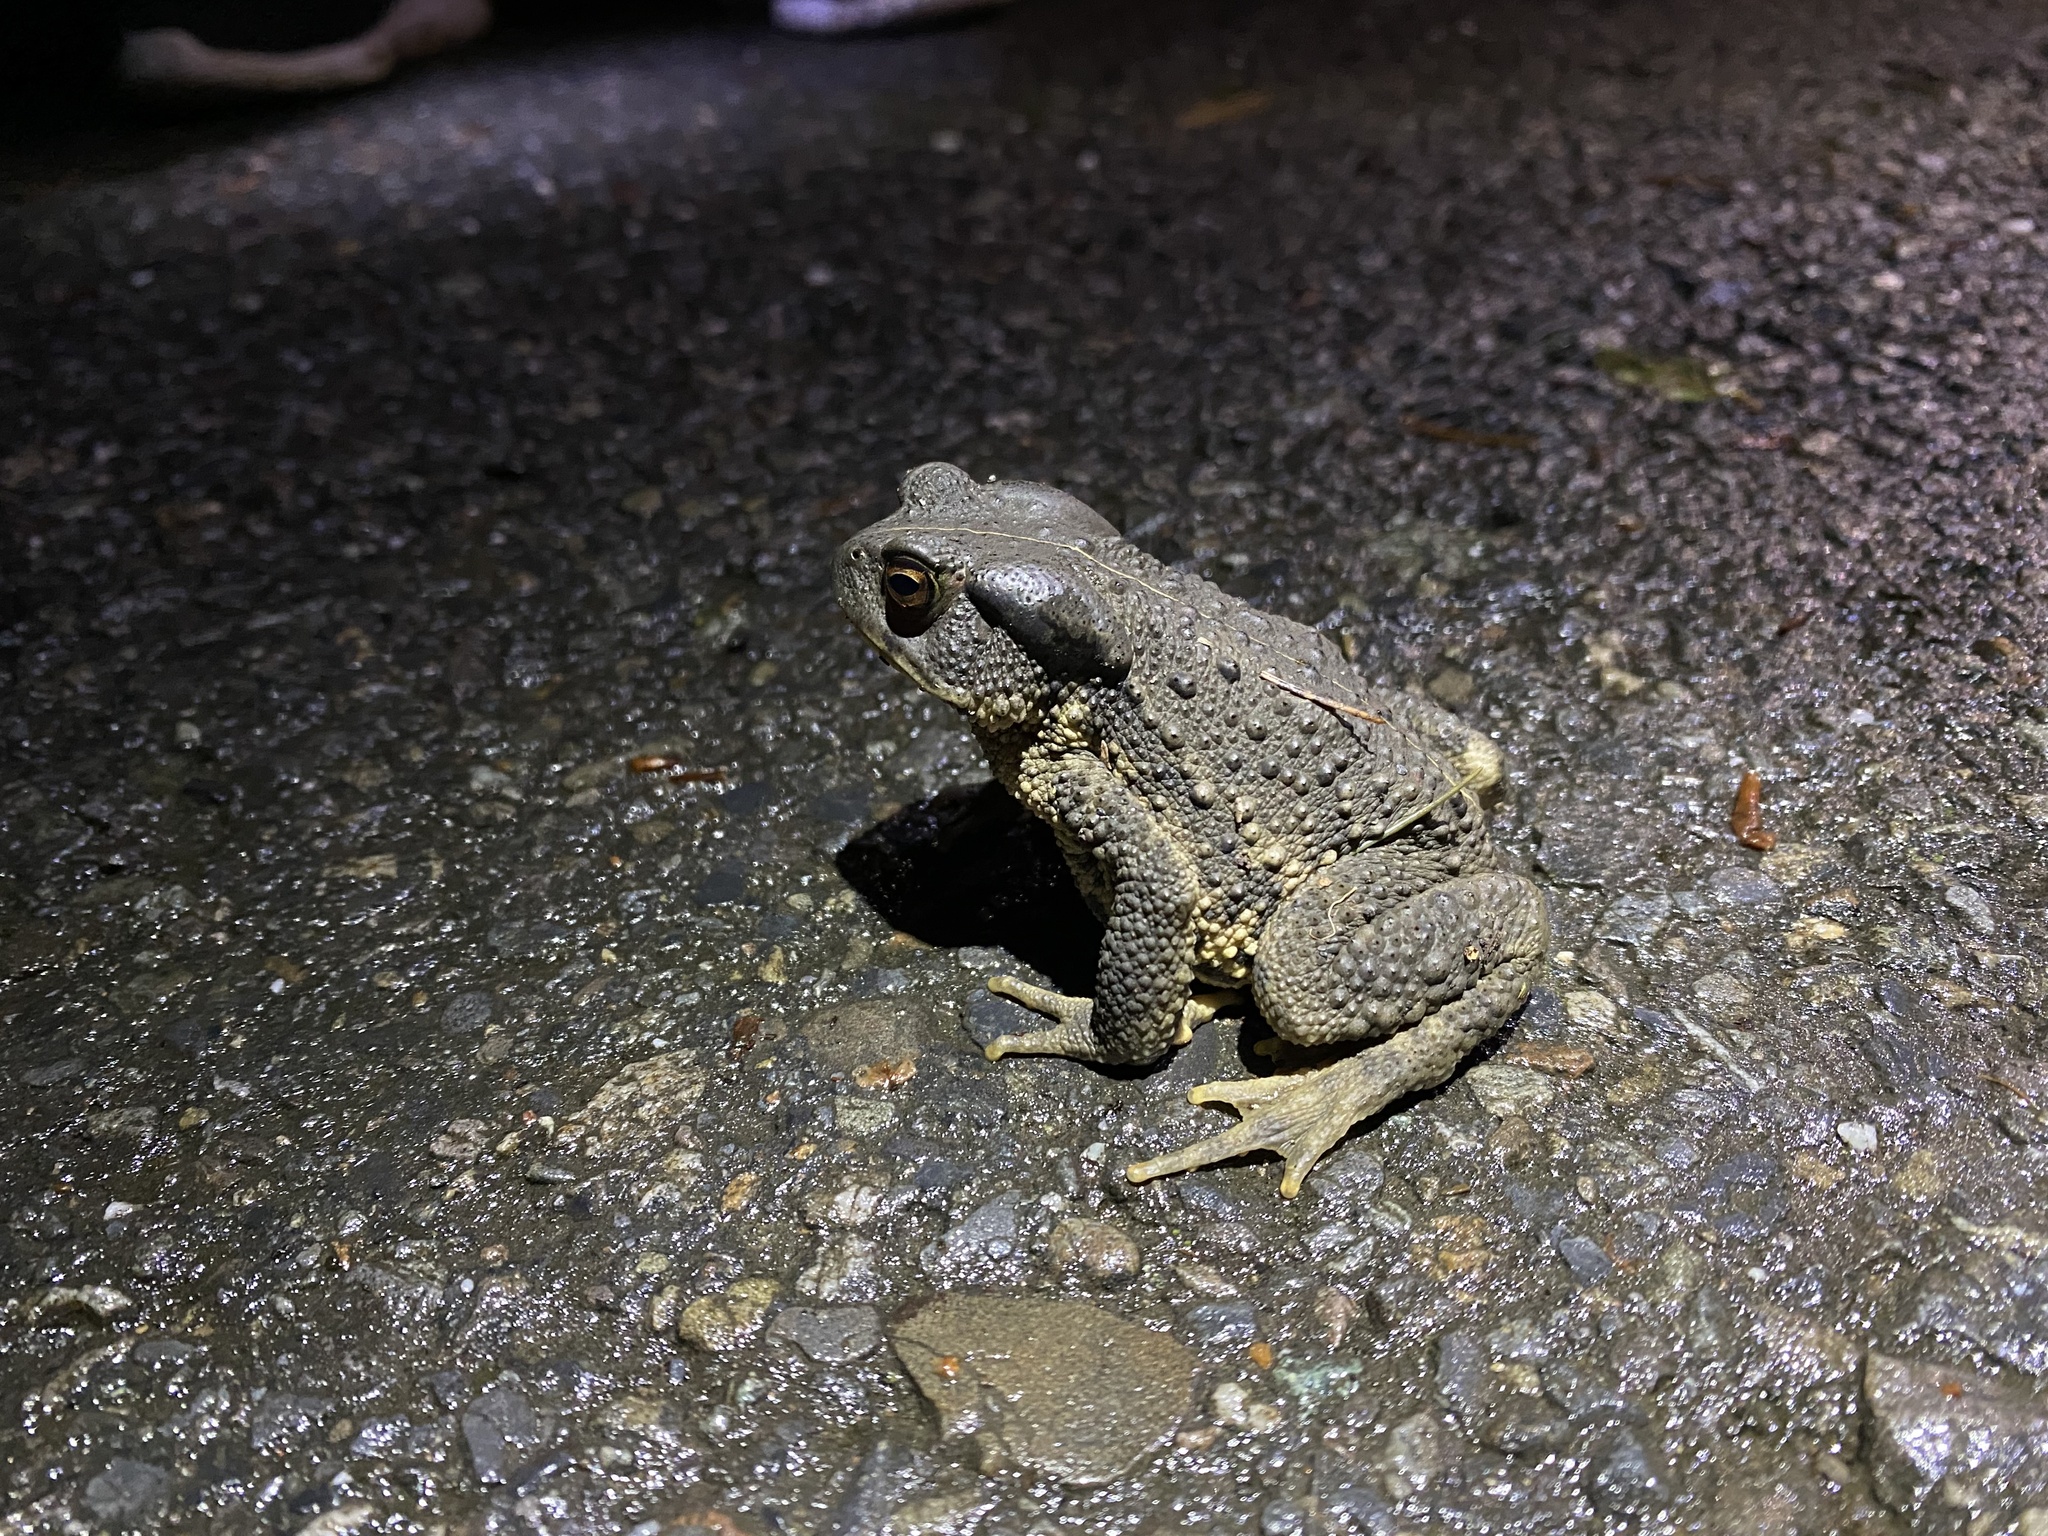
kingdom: Animalia
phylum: Chordata
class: Amphibia
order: Anura
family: Bufonidae
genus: Bufo
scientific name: Bufo bankorensis
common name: Bankor toad
